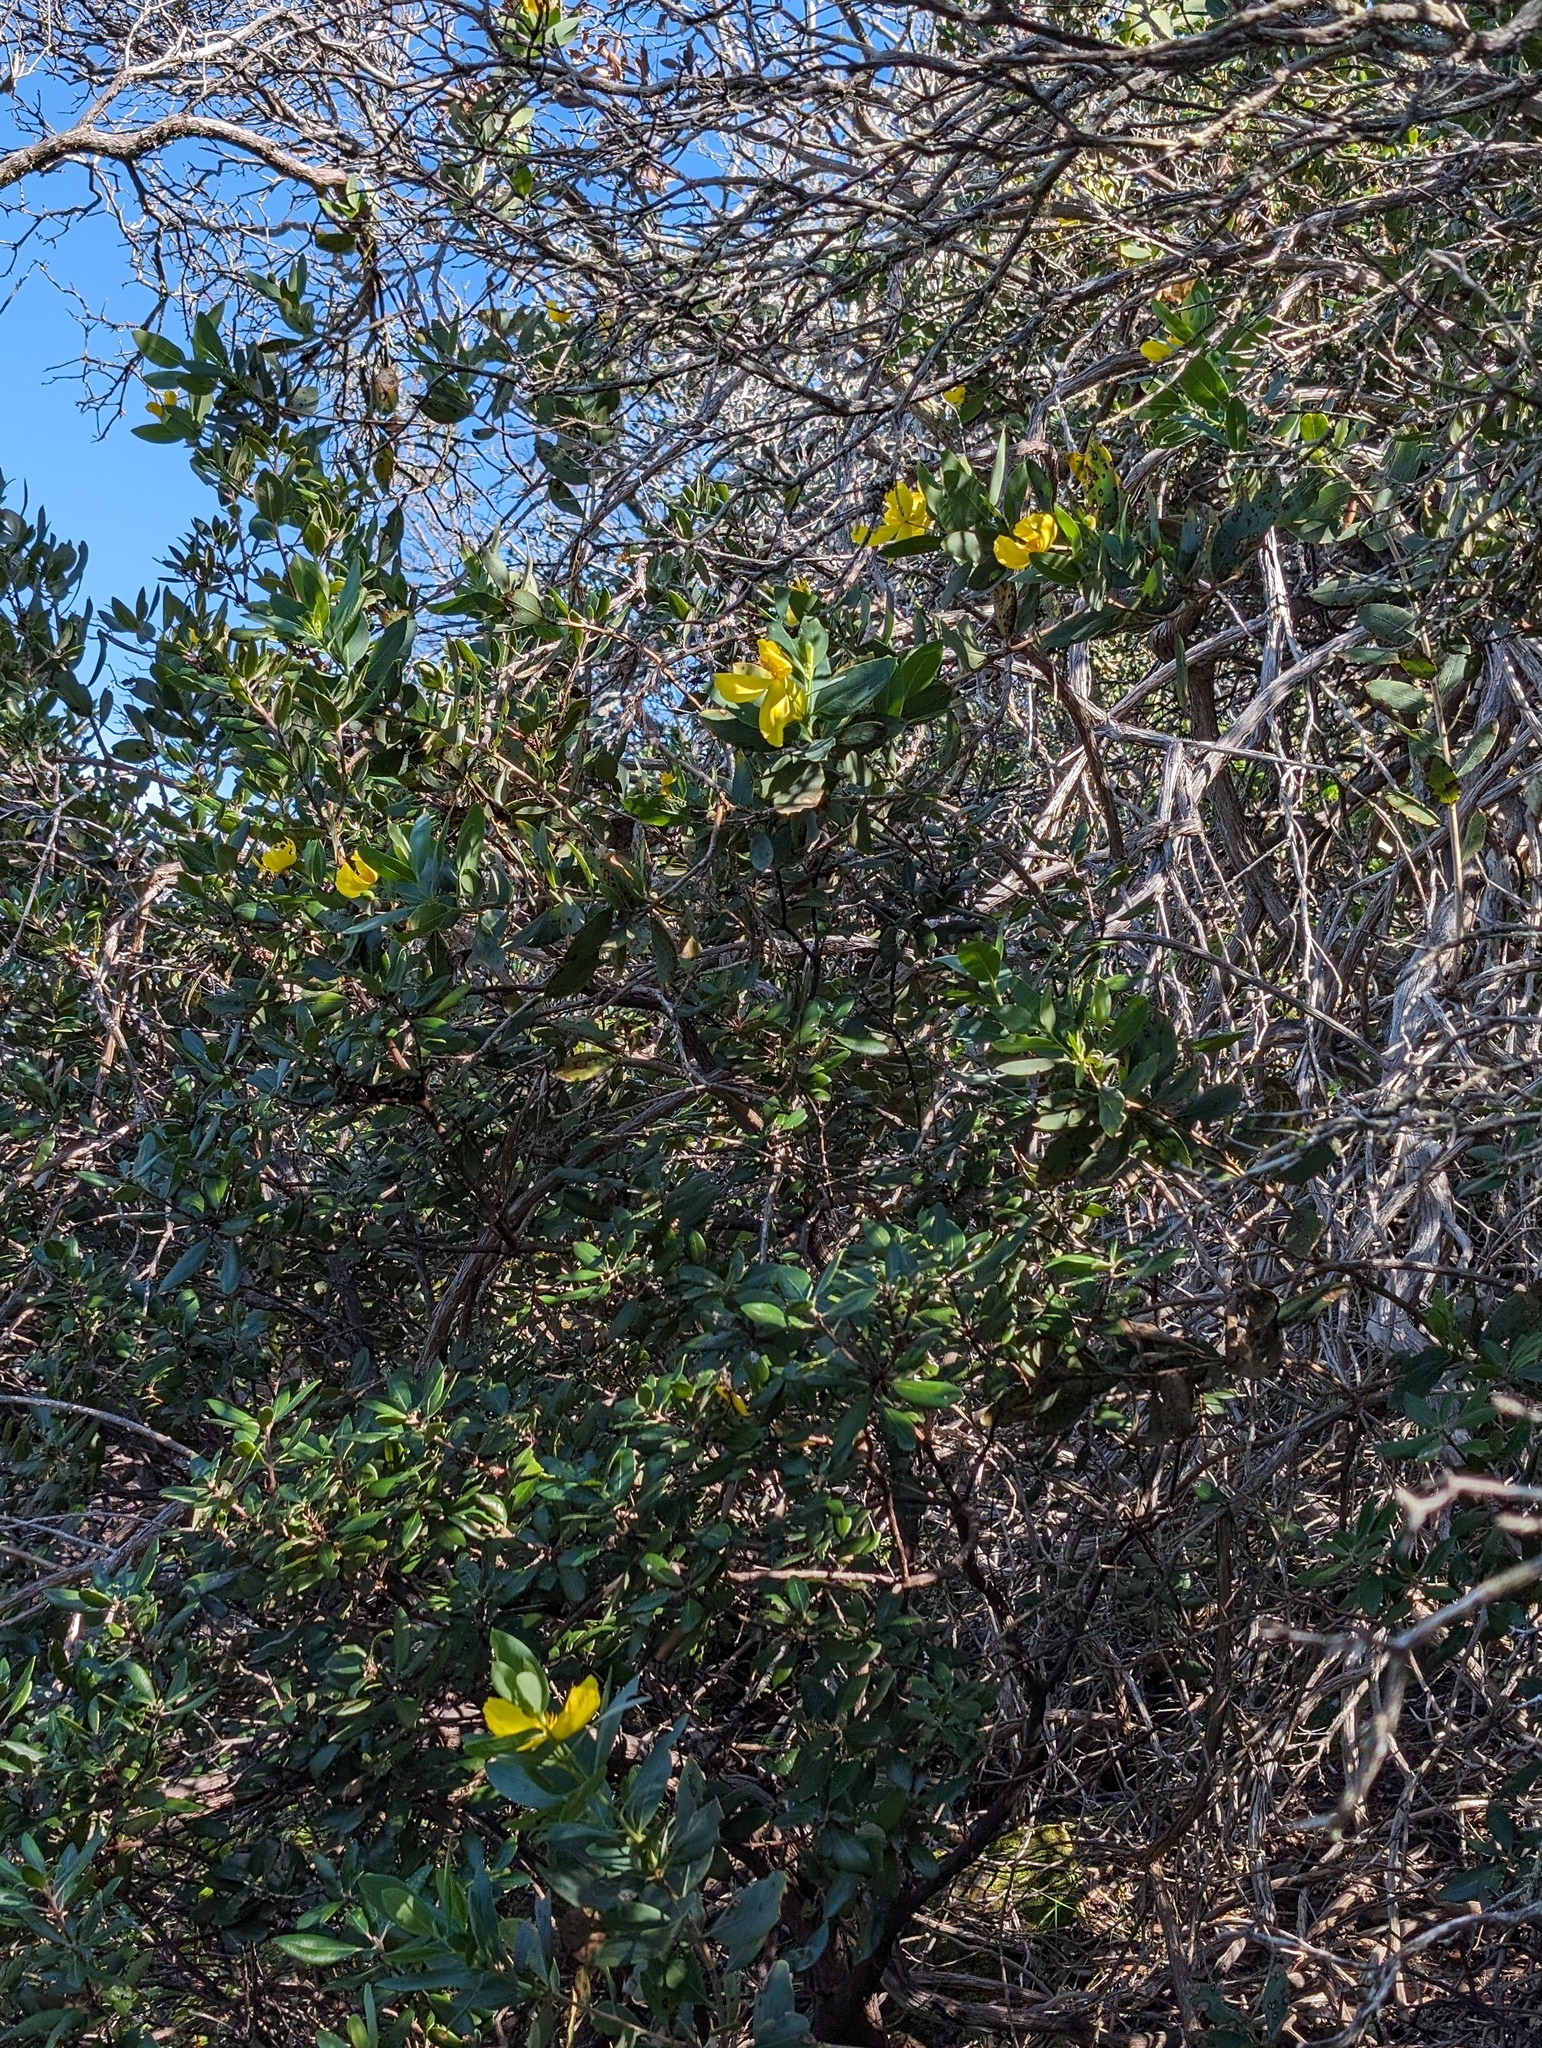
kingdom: Plantae
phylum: Tracheophyta
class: Magnoliopsida
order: Ranunculales
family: Papaveraceae
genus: Dendromecon
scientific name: Dendromecon harfordii
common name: Island tree-poppy
